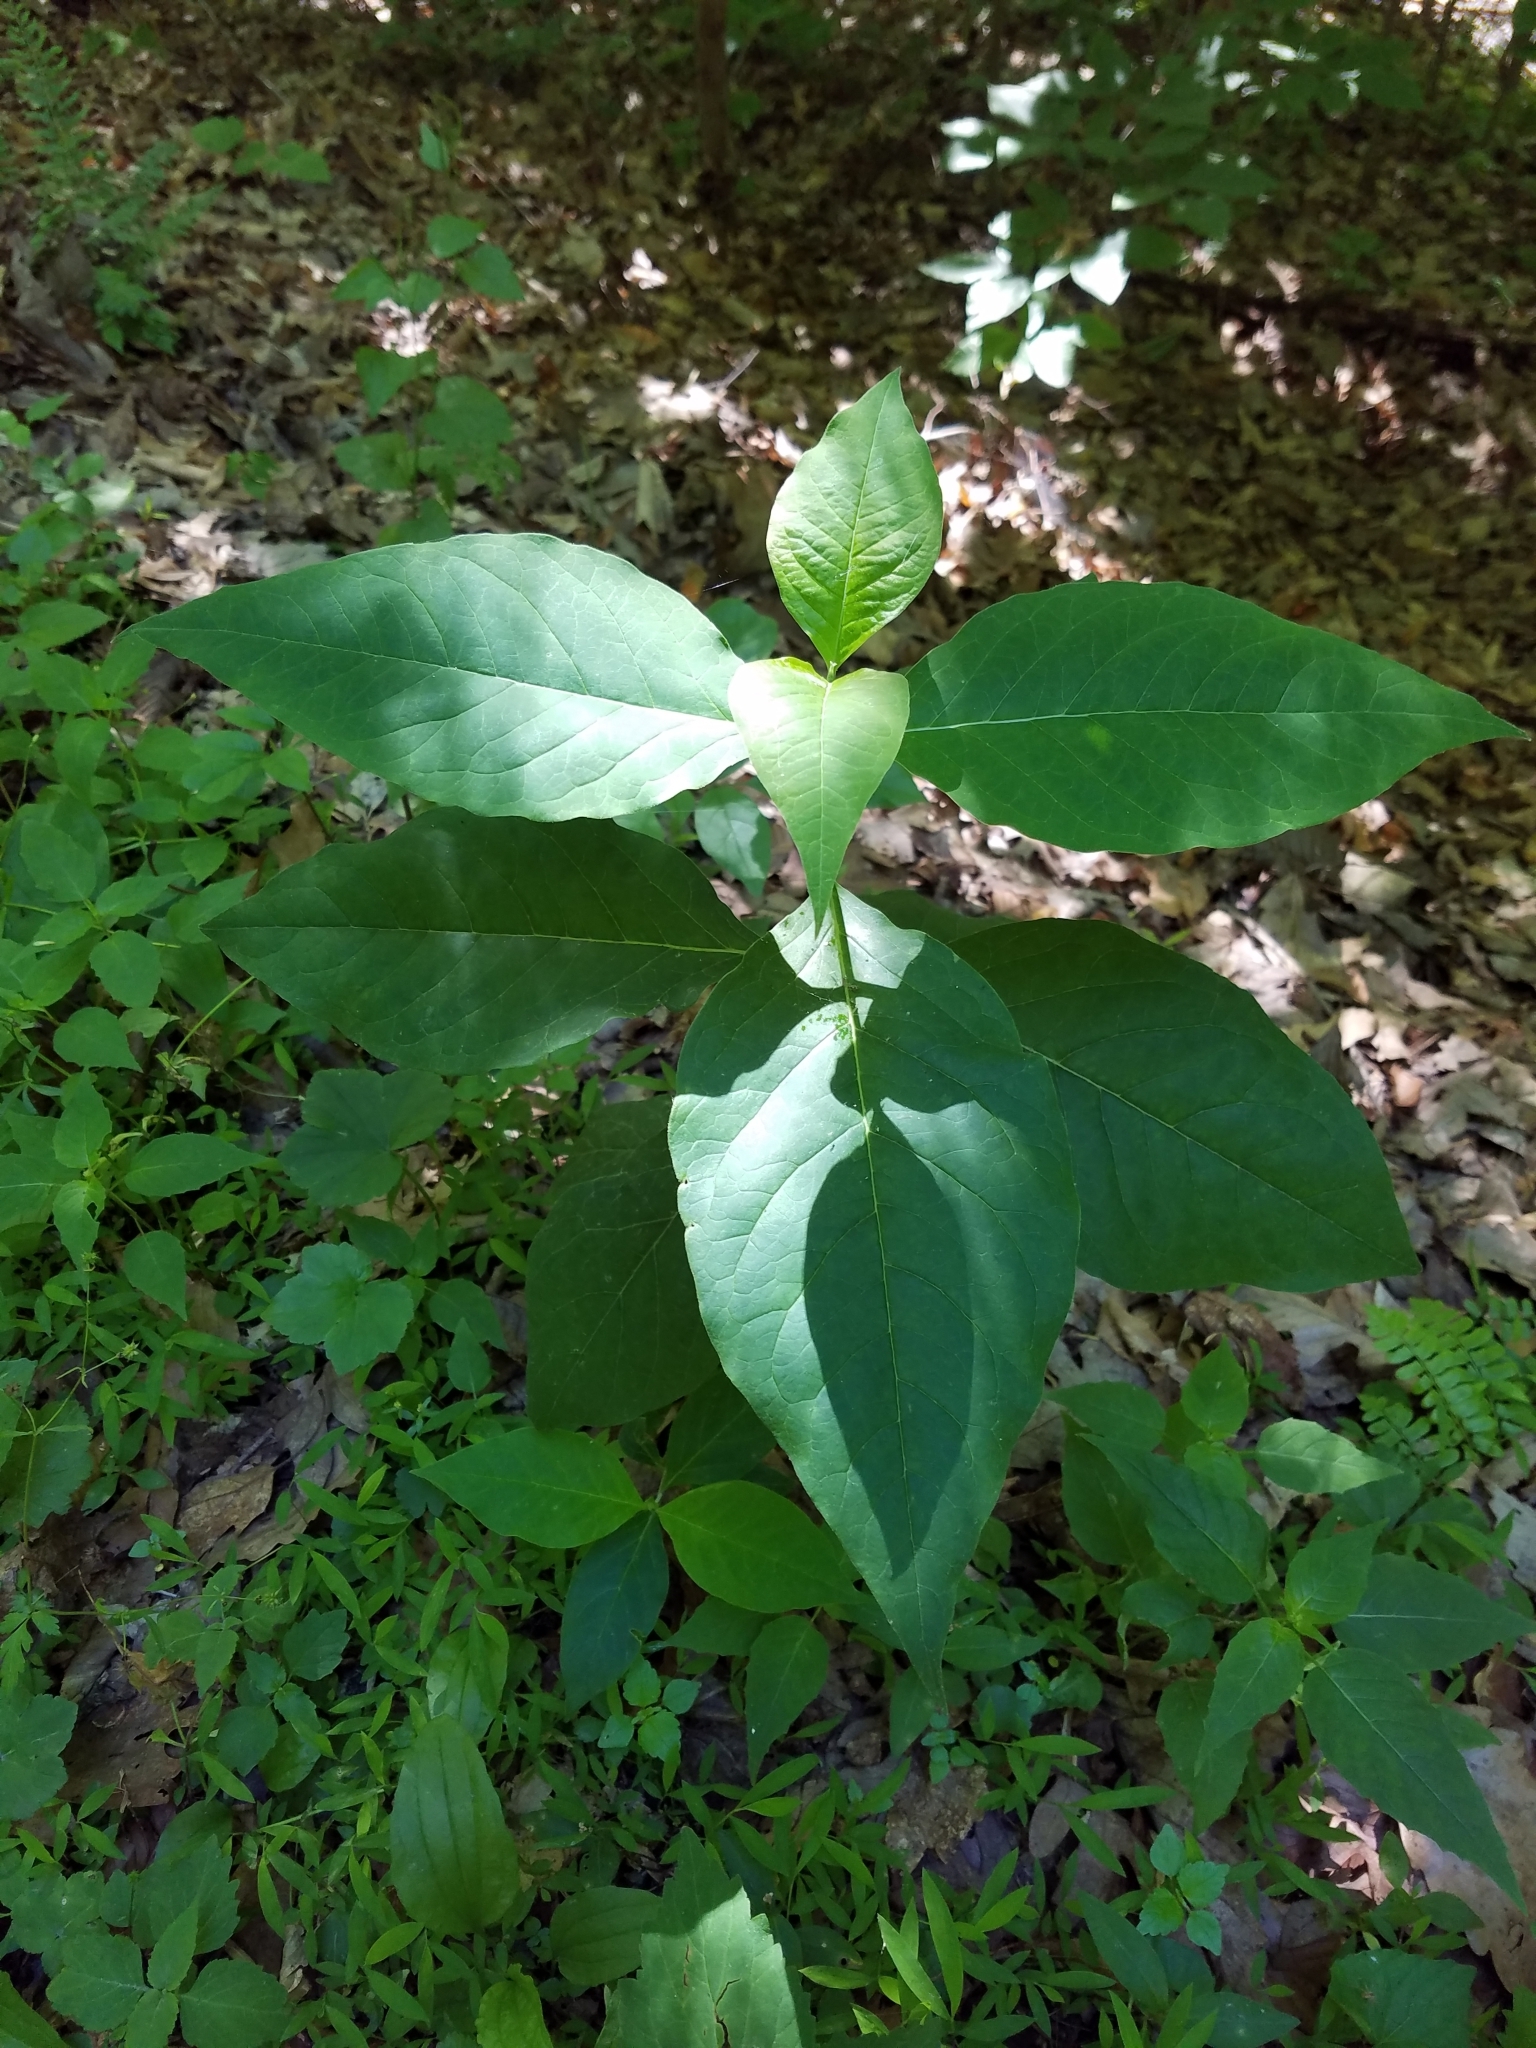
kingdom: Plantae
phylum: Tracheophyta
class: Magnoliopsida
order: Gentianales
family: Apocynaceae
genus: Asclepias
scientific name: Asclepias exaltata
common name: Poke milkweed
